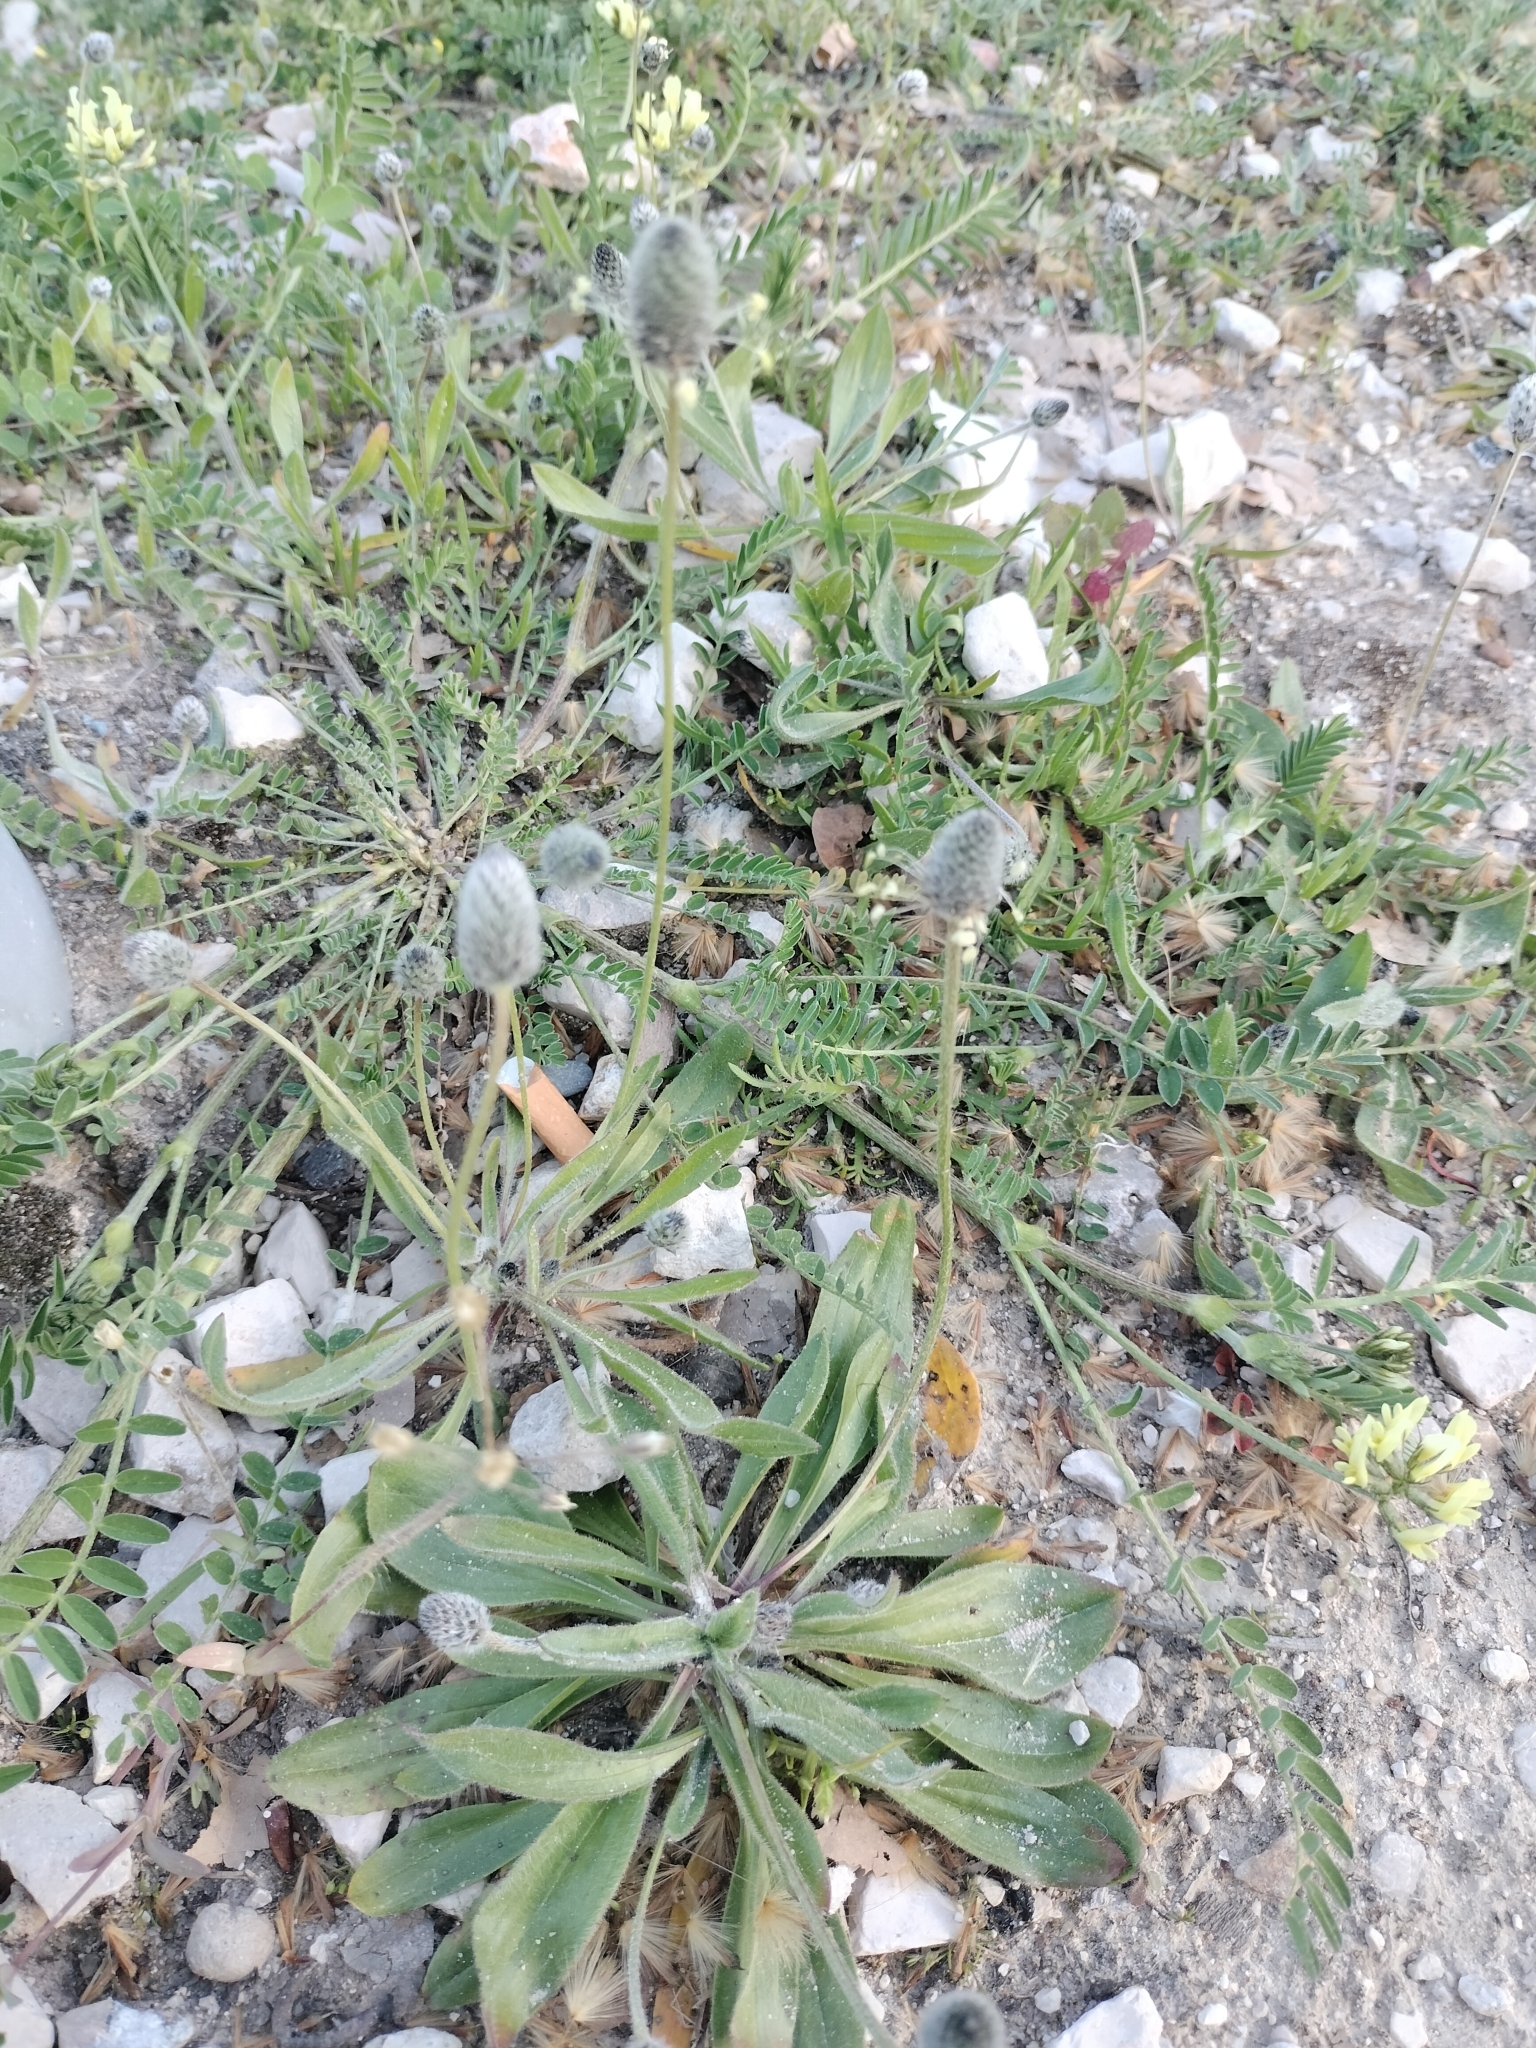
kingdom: Plantae
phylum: Tracheophyta
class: Magnoliopsida
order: Lamiales
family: Plantaginaceae
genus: Plantago
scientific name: Plantago lagopus
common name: Hare-foot plantain
